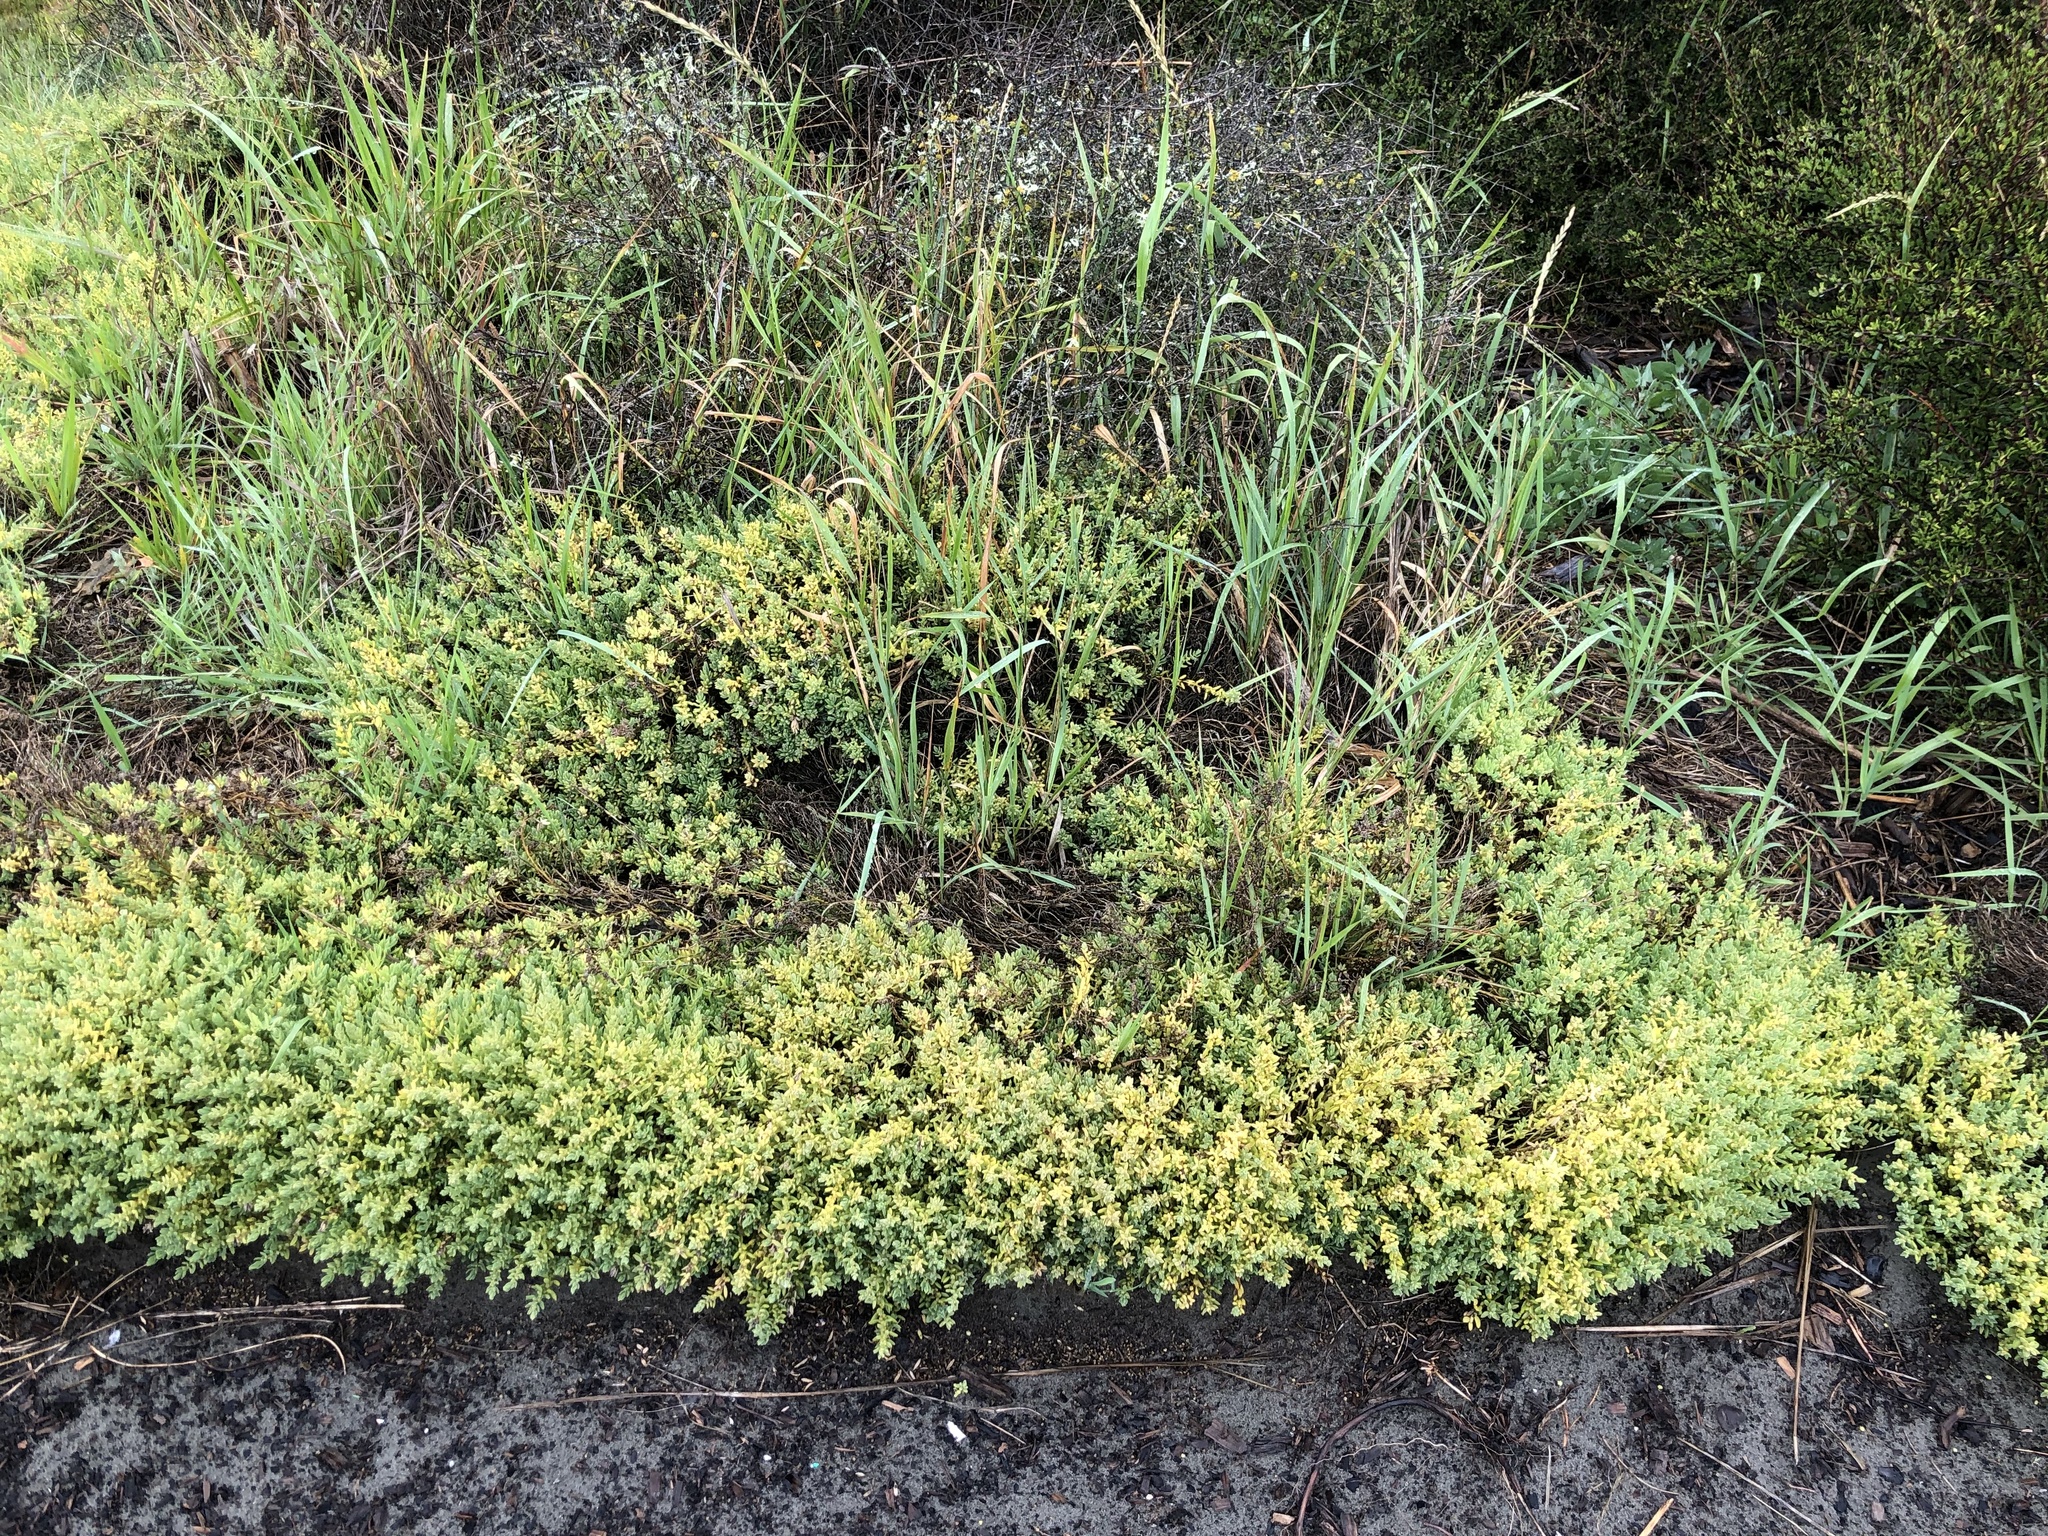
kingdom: Plantae
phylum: Tracheophyta
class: Magnoliopsida
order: Caryophyllales
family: Amaranthaceae
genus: Suaeda
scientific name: Suaeda novae-zelandiae
